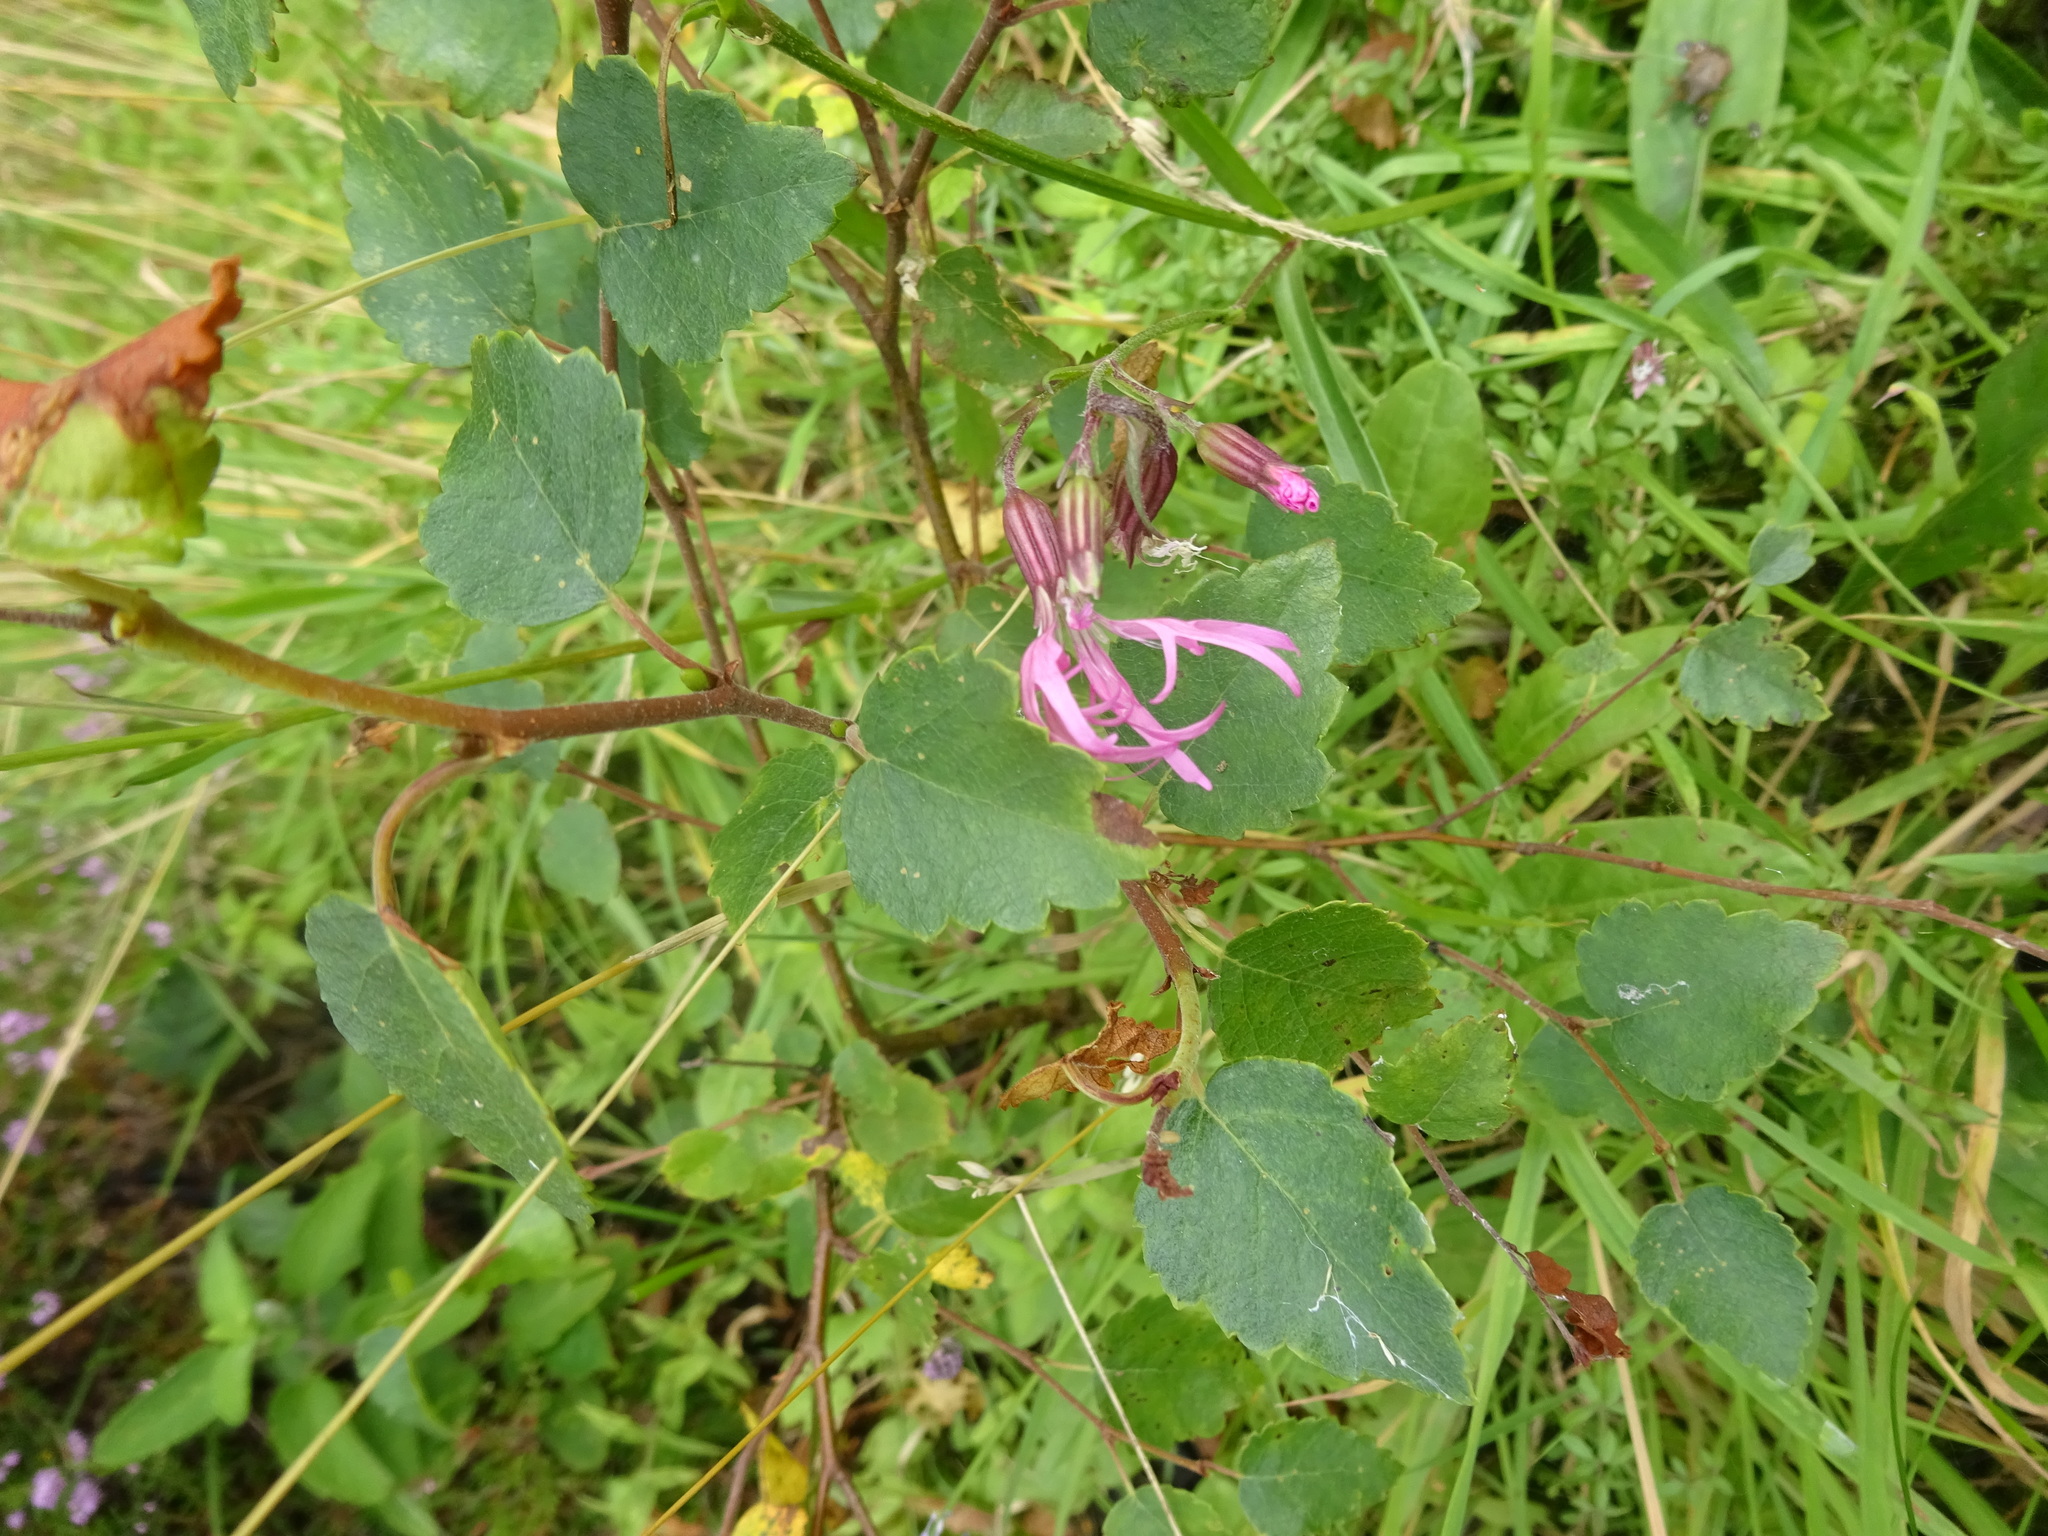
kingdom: Plantae
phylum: Tracheophyta
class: Magnoliopsida
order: Caryophyllales
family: Caryophyllaceae
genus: Silene
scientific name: Silene flos-cuculi
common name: Ragged-robin
